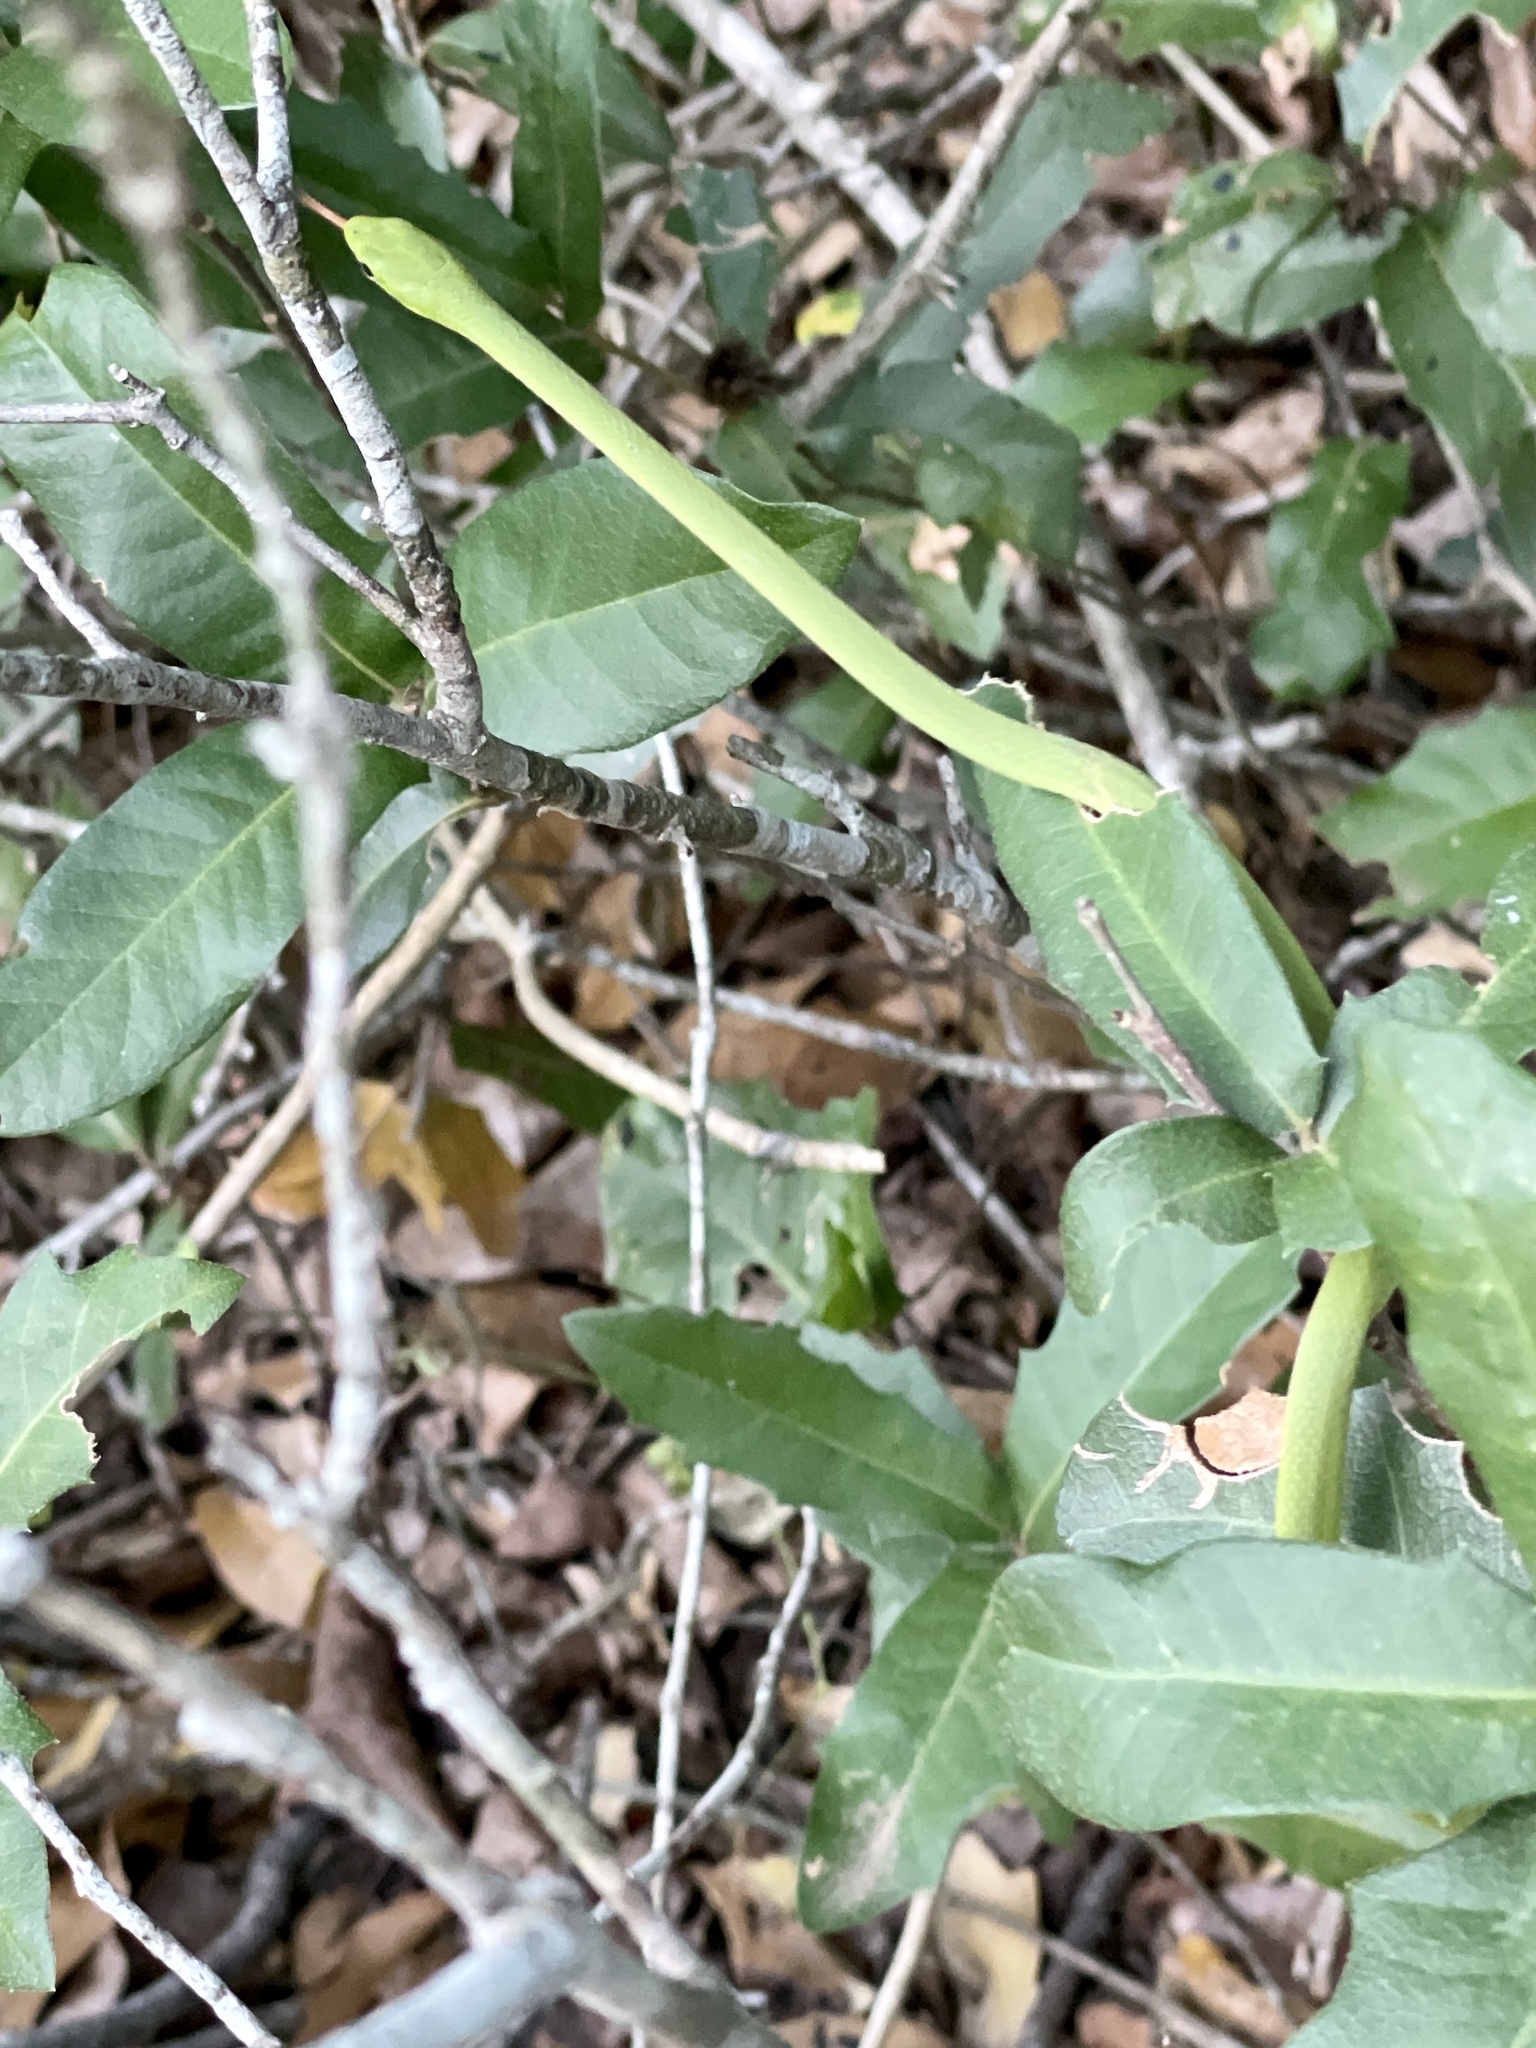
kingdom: Animalia
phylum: Chordata
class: Squamata
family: Colubridae
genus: Opheodrys
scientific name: Opheodrys aestivus
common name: Rough greensnake
